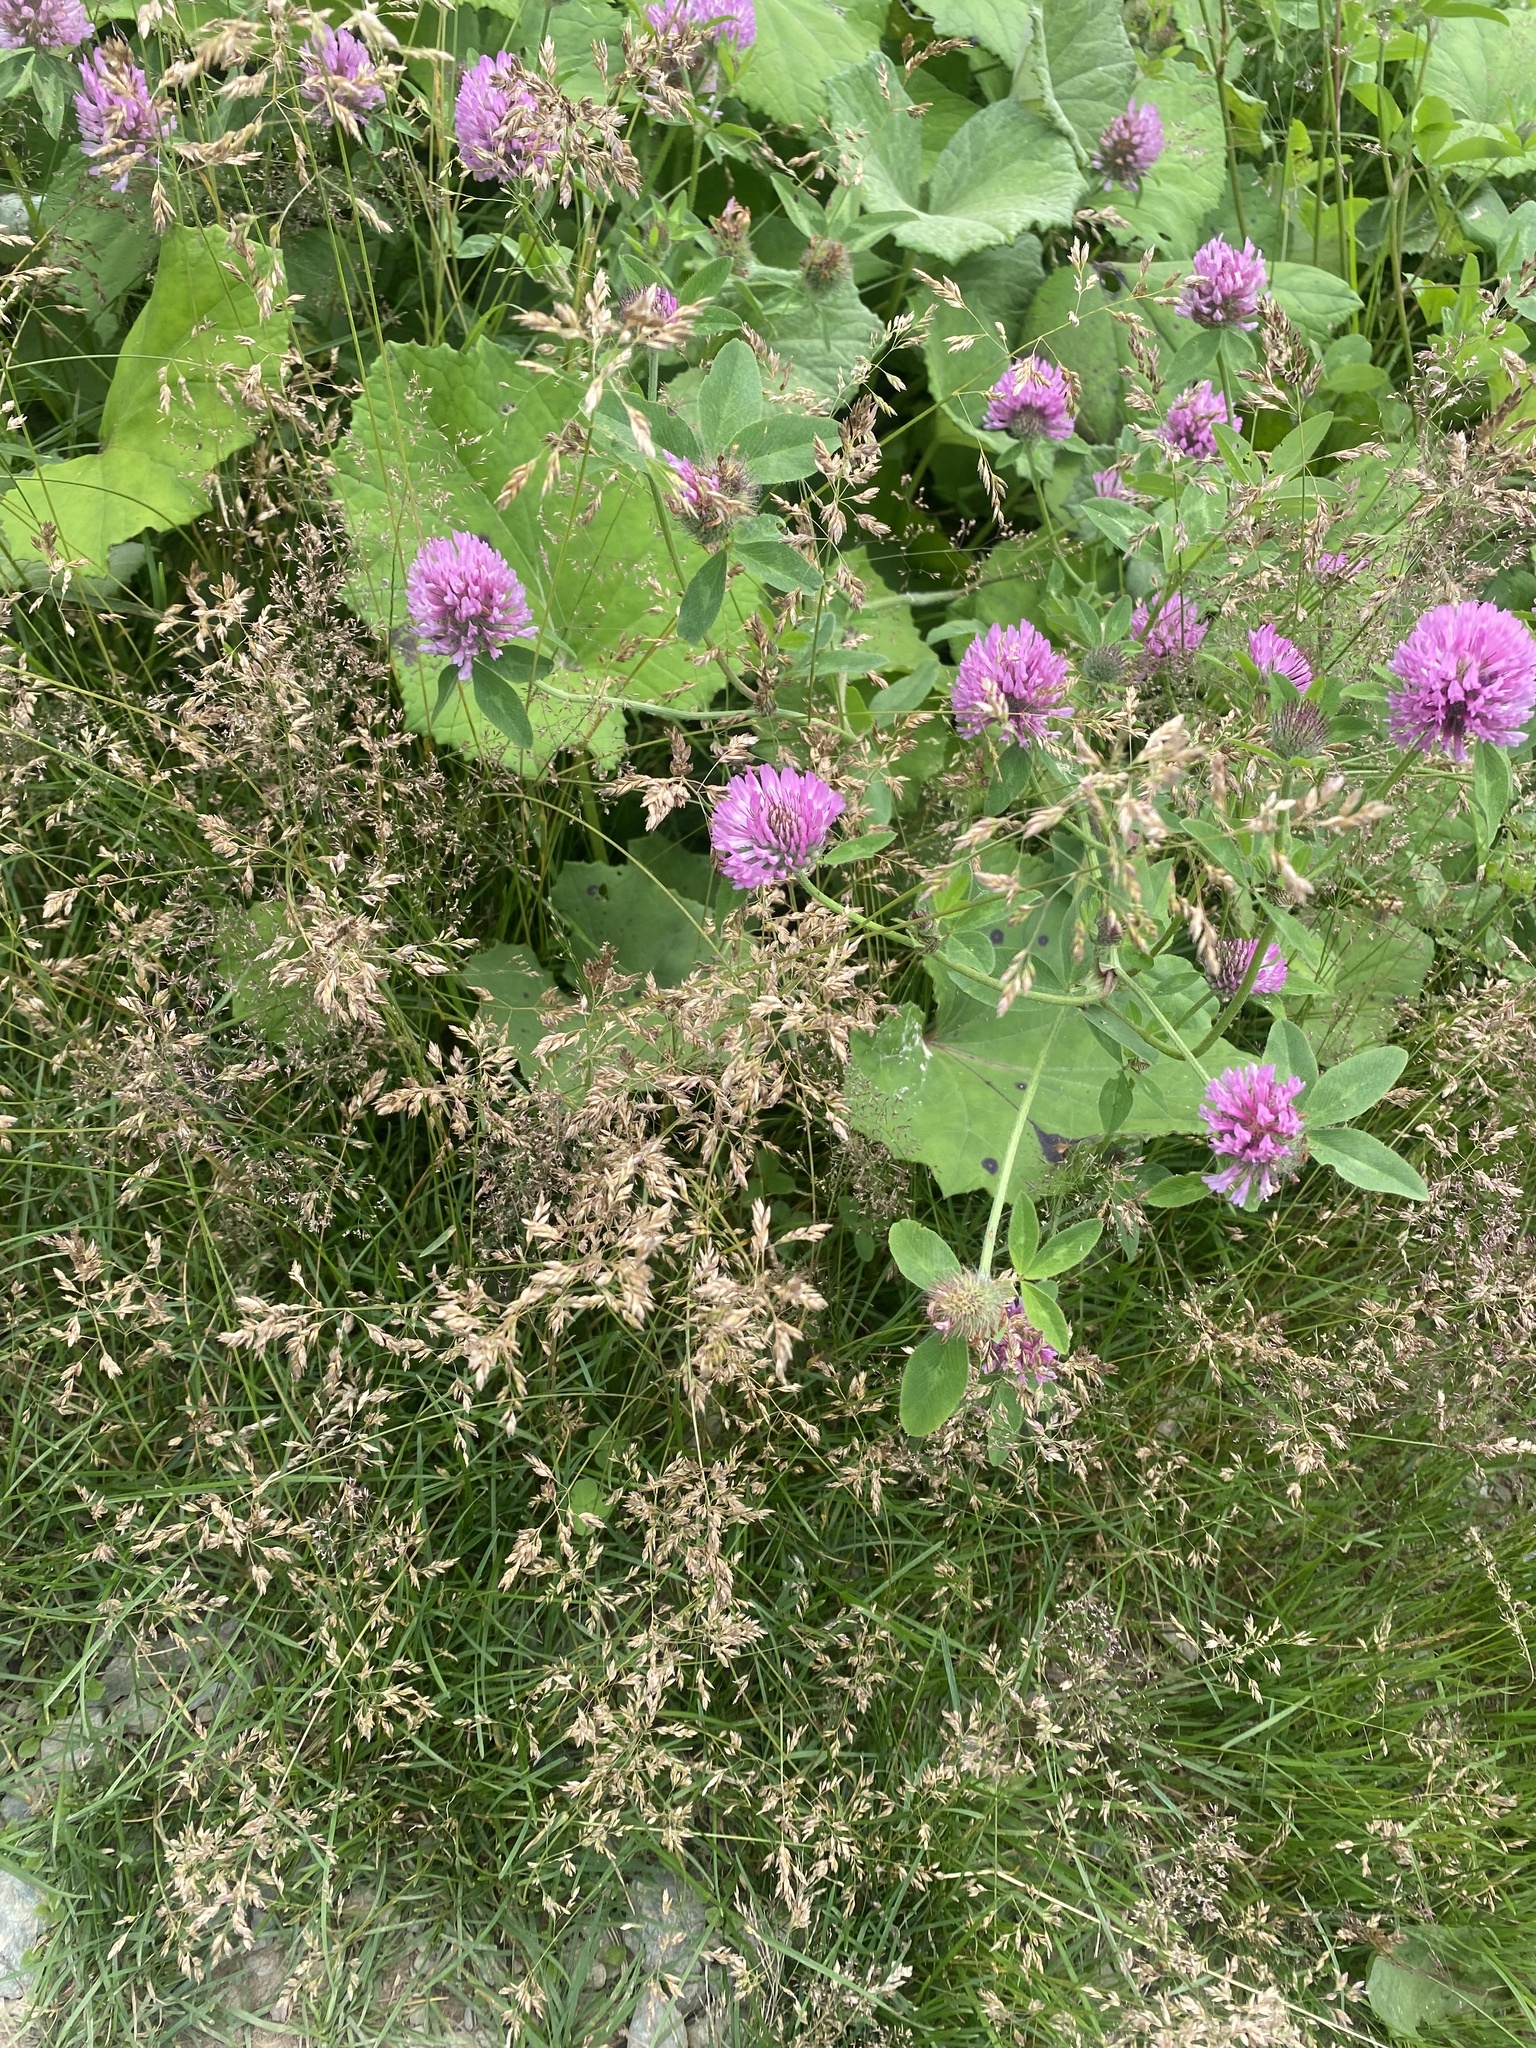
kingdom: Plantae
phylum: Tracheophyta
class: Magnoliopsida
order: Fabales
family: Fabaceae
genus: Trifolium
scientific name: Trifolium pratense
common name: Red clover
